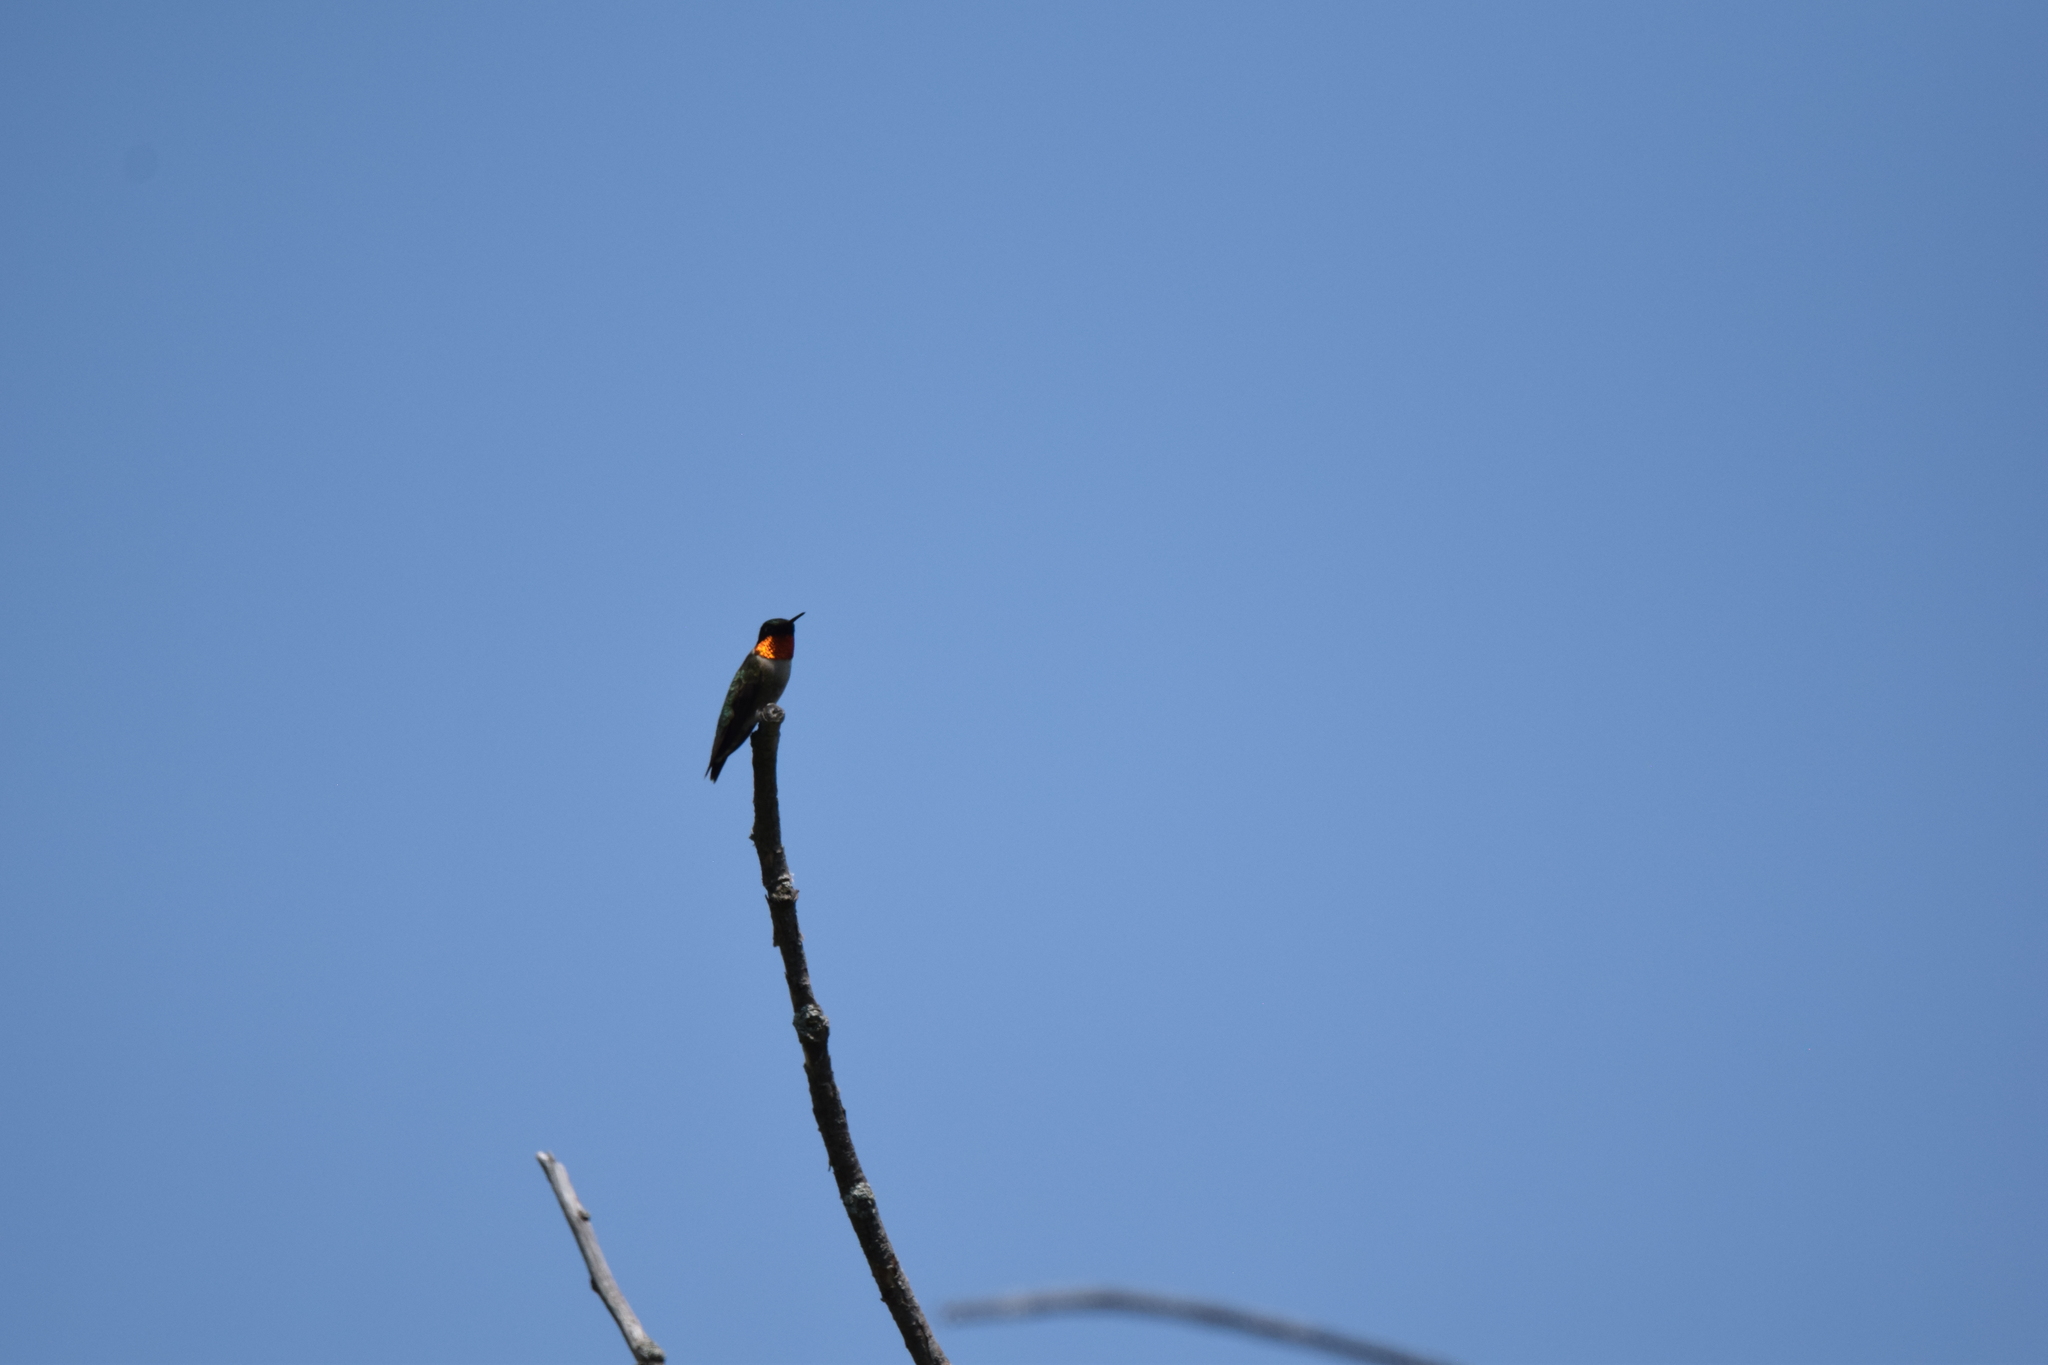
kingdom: Animalia
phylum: Chordata
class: Aves
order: Apodiformes
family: Trochilidae
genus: Archilochus
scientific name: Archilochus colubris
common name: Ruby-throated hummingbird
